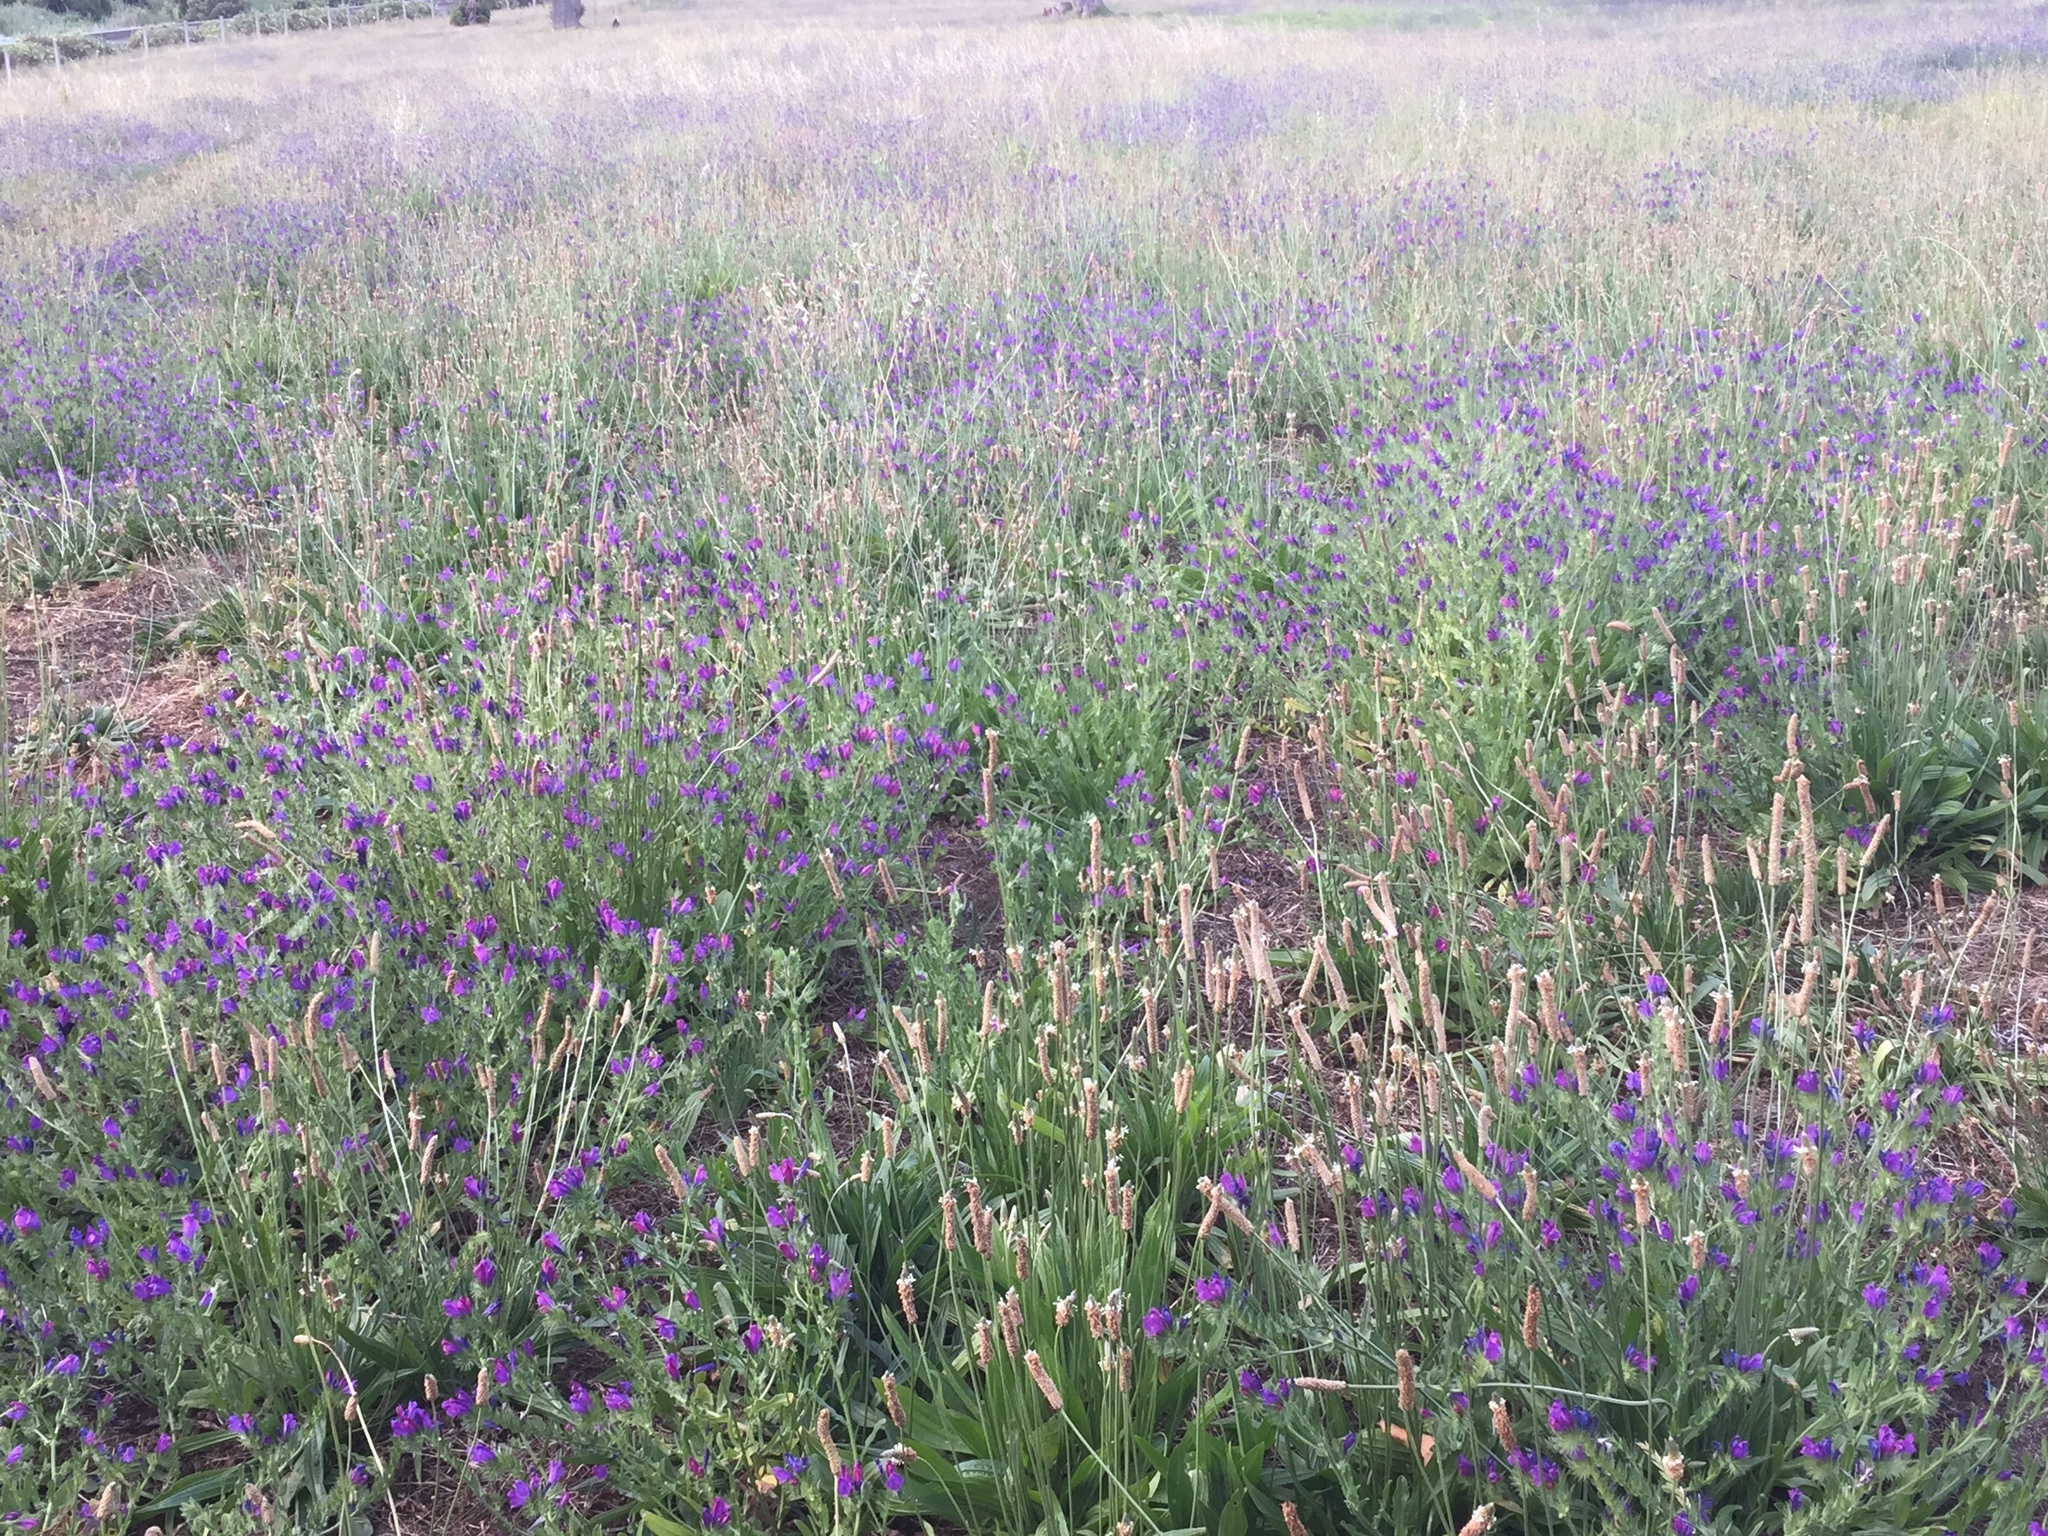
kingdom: Plantae
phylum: Tracheophyta
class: Magnoliopsida
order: Boraginales
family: Boraginaceae
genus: Echium
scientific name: Echium plantagineum
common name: Purple viper's-bugloss
